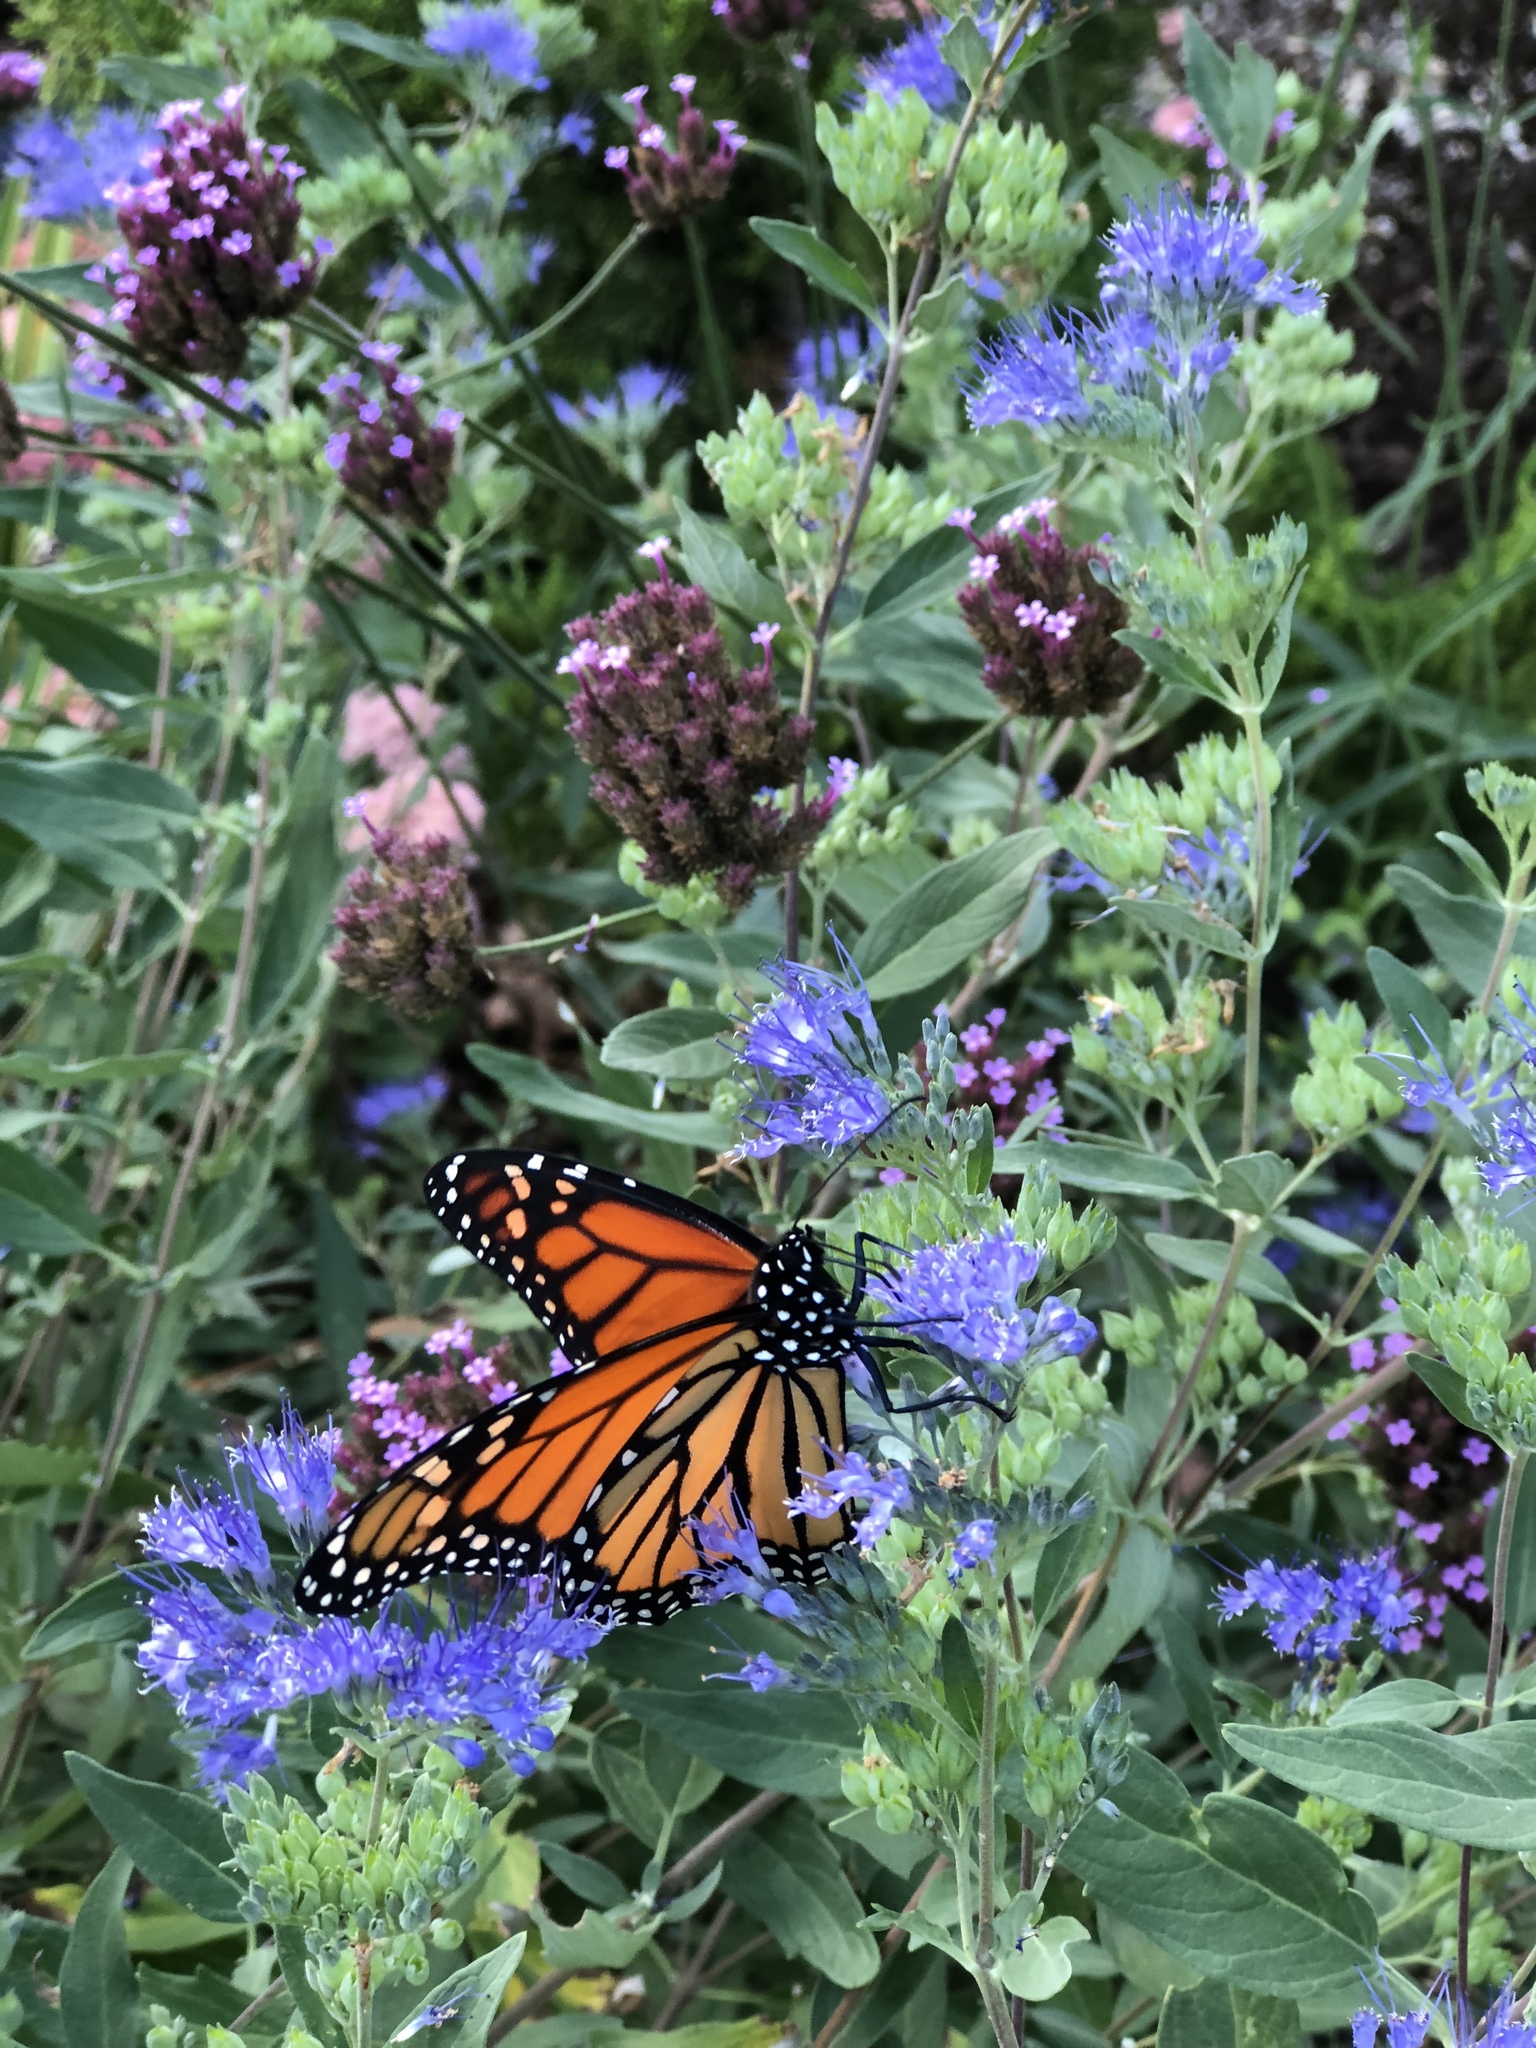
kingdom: Animalia
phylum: Arthropoda
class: Insecta
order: Lepidoptera
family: Nymphalidae
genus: Danaus
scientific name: Danaus plexippus
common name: Monarch
